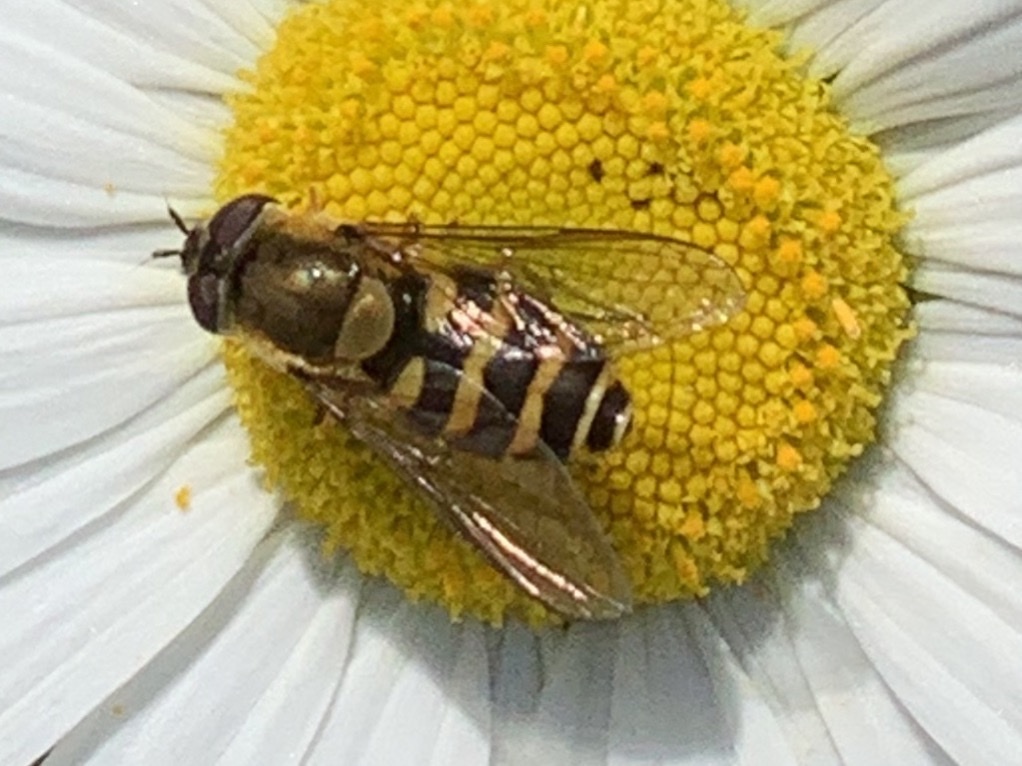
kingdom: Animalia
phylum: Arthropoda
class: Insecta
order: Diptera
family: Syrphidae
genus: Syrphus
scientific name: Syrphus
